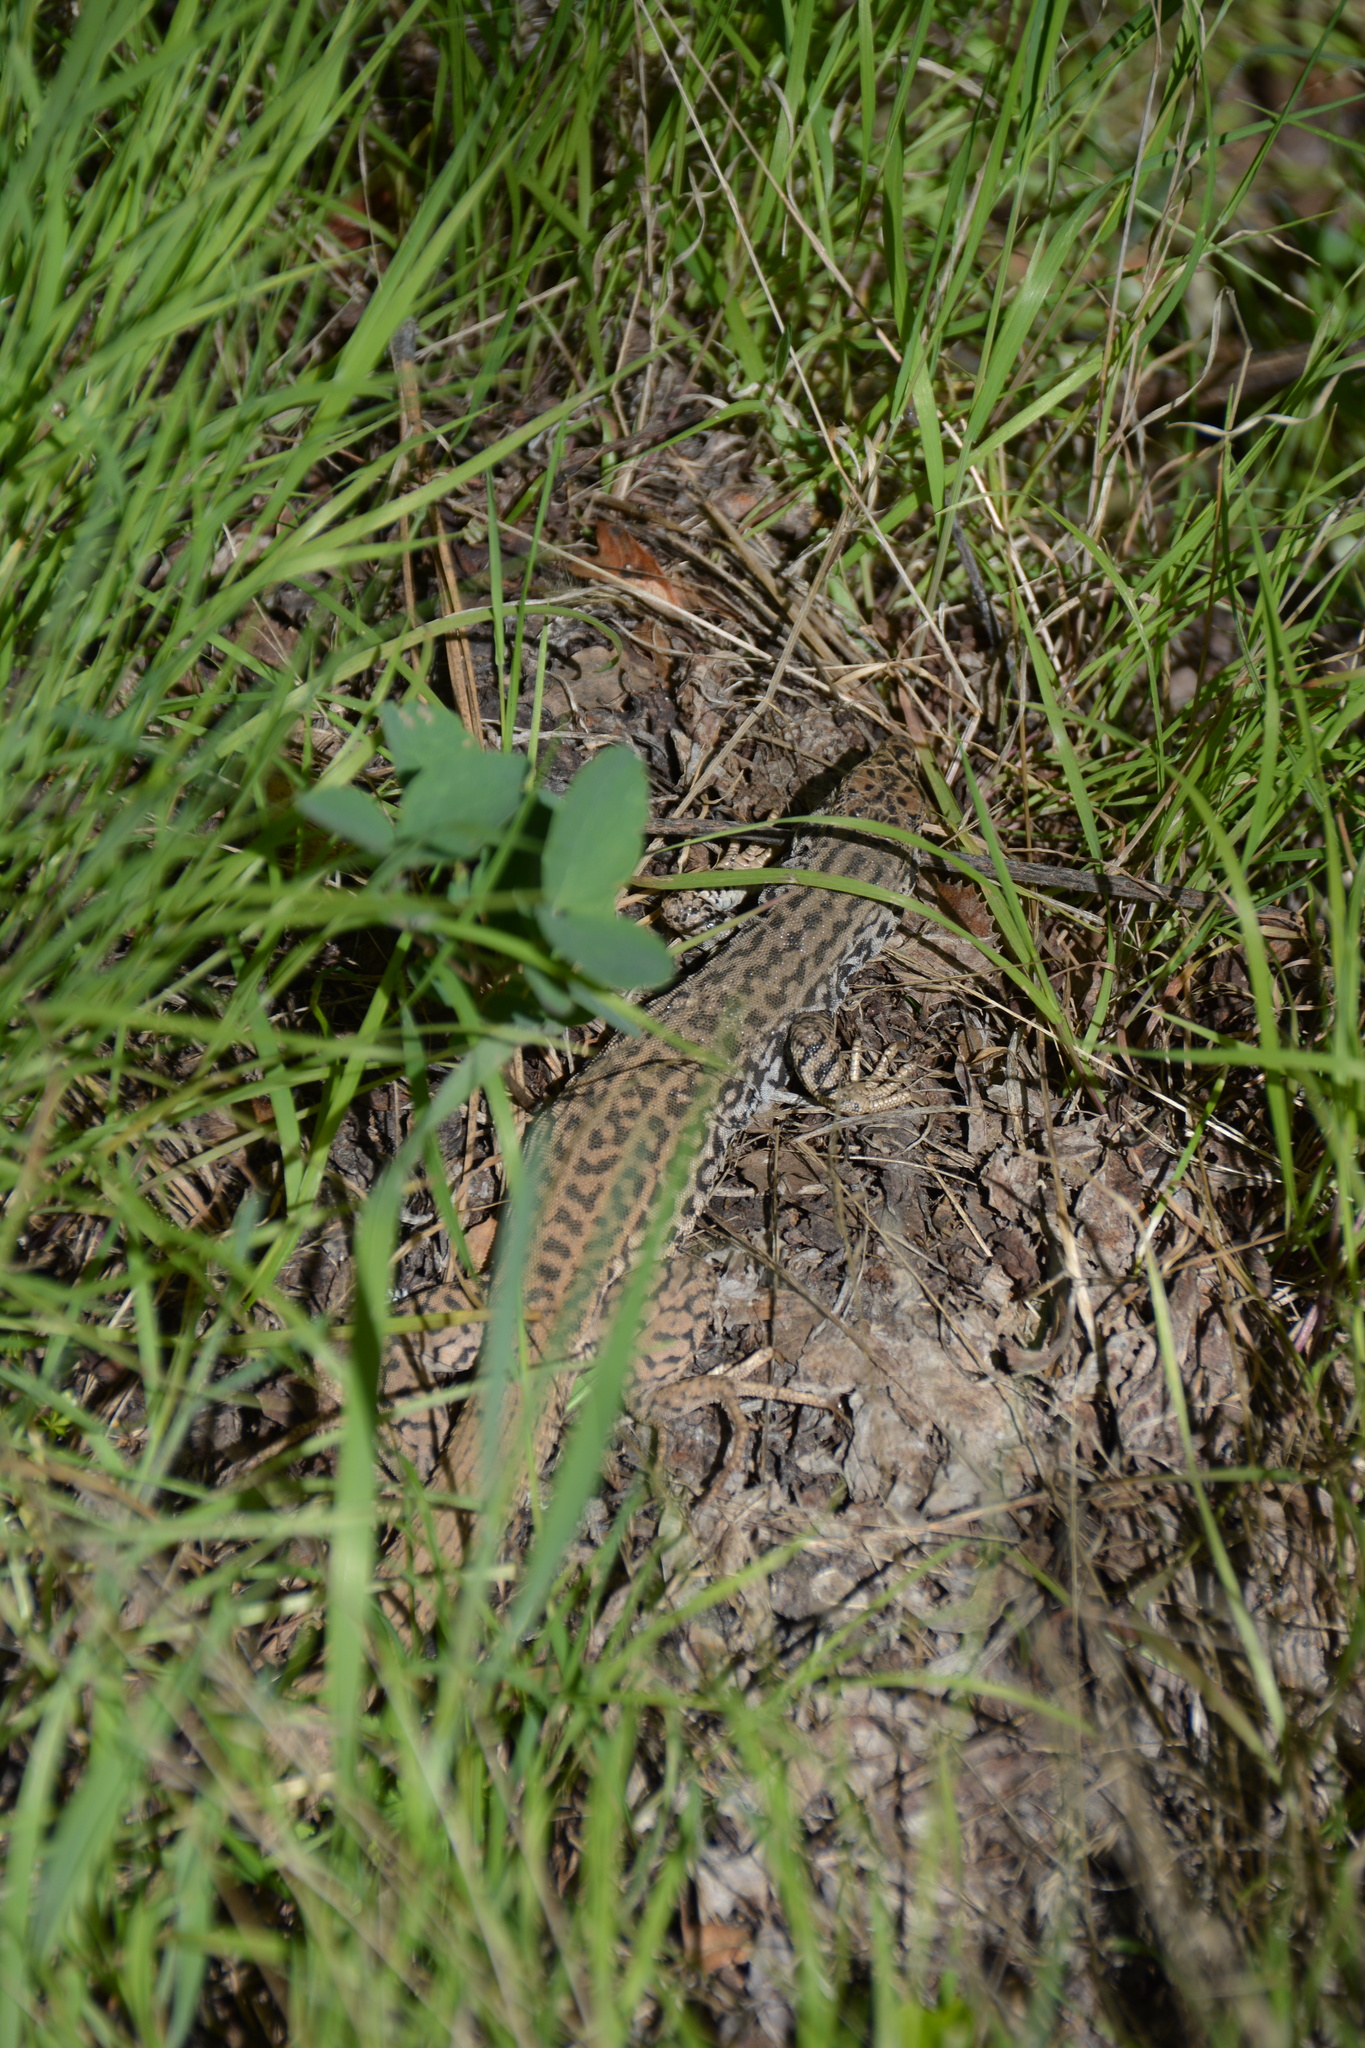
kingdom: Animalia
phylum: Chordata
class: Squamata
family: Teiidae
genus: Aspidoscelis
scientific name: Aspidoscelis tigris
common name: Tiger whiptail
